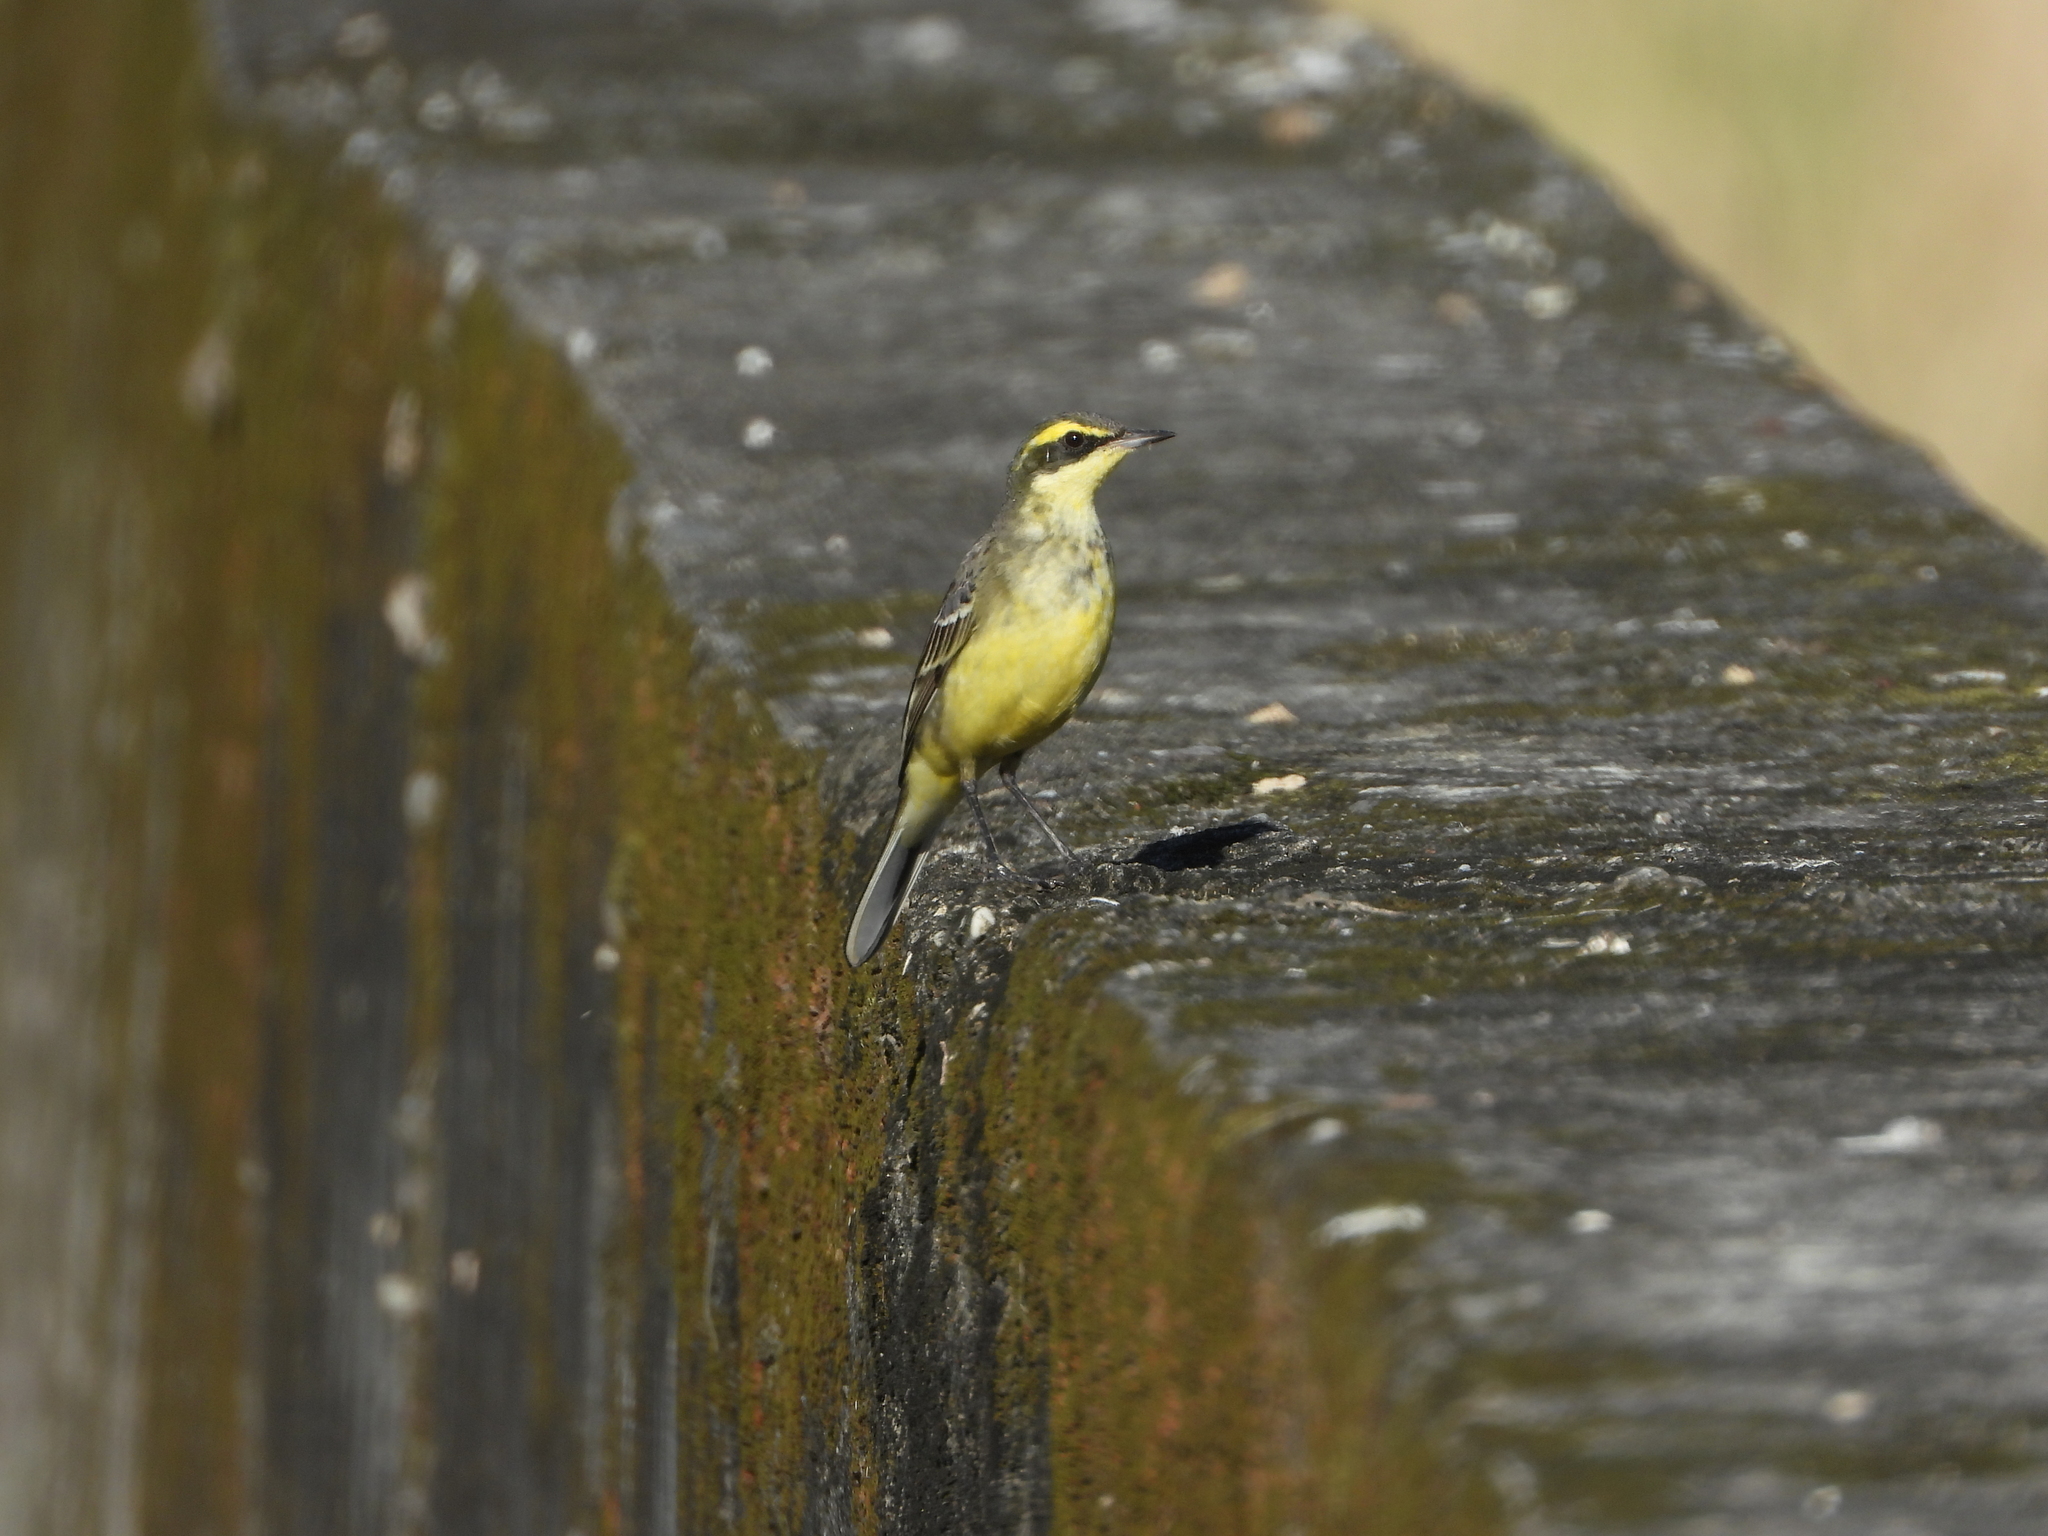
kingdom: Animalia
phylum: Chordata
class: Aves
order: Passeriformes
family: Motacillidae
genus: Motacilla
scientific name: Motacilla tschutschensis
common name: Eastern yellow wagtail
